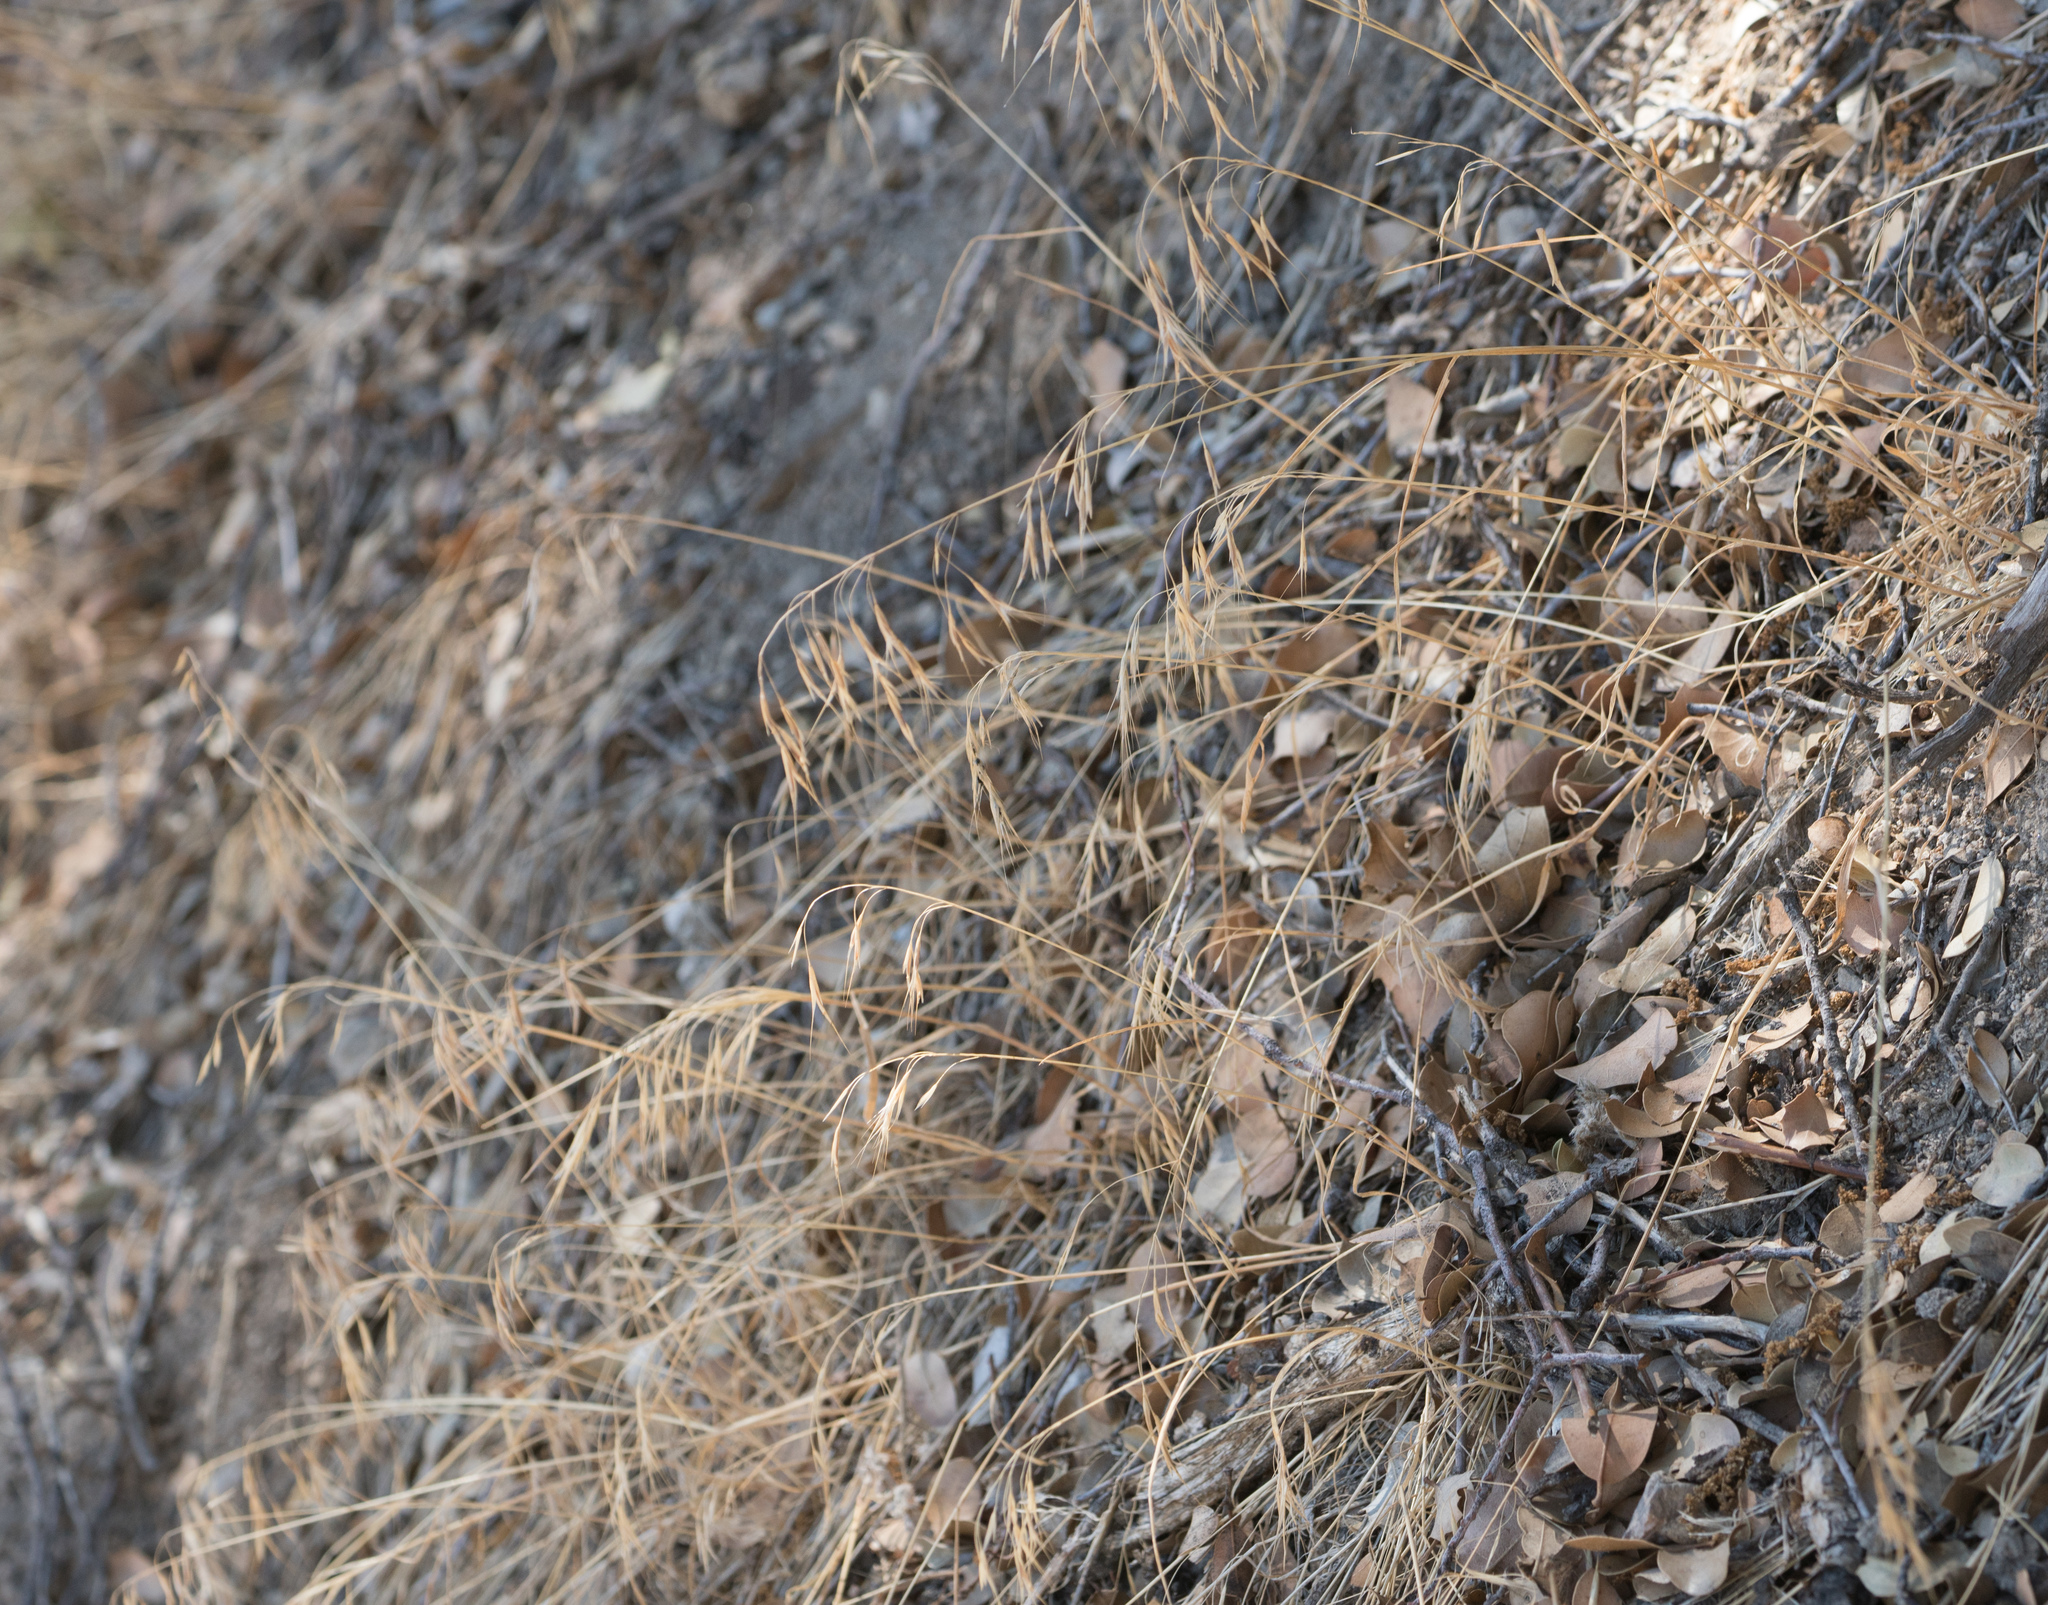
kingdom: Plantae
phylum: Tracheophyta
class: Liliopsida
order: Poales
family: Poaceae
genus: Bromus
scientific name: Bromus tectorum
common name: Cheatgrass
